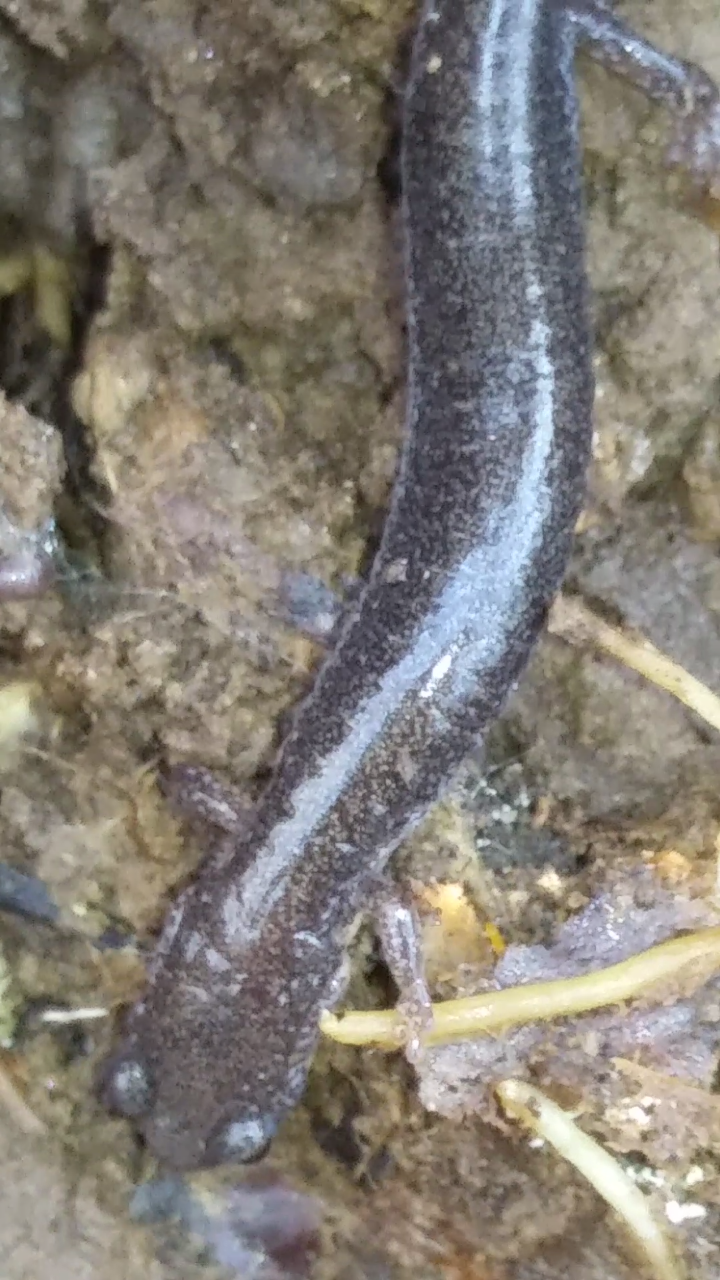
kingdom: Animalia
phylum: Chordata
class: Amphibia
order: Caudata
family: Plethodontidae
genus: Plethodon
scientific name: Plethodon cinereus
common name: Redback salamander
